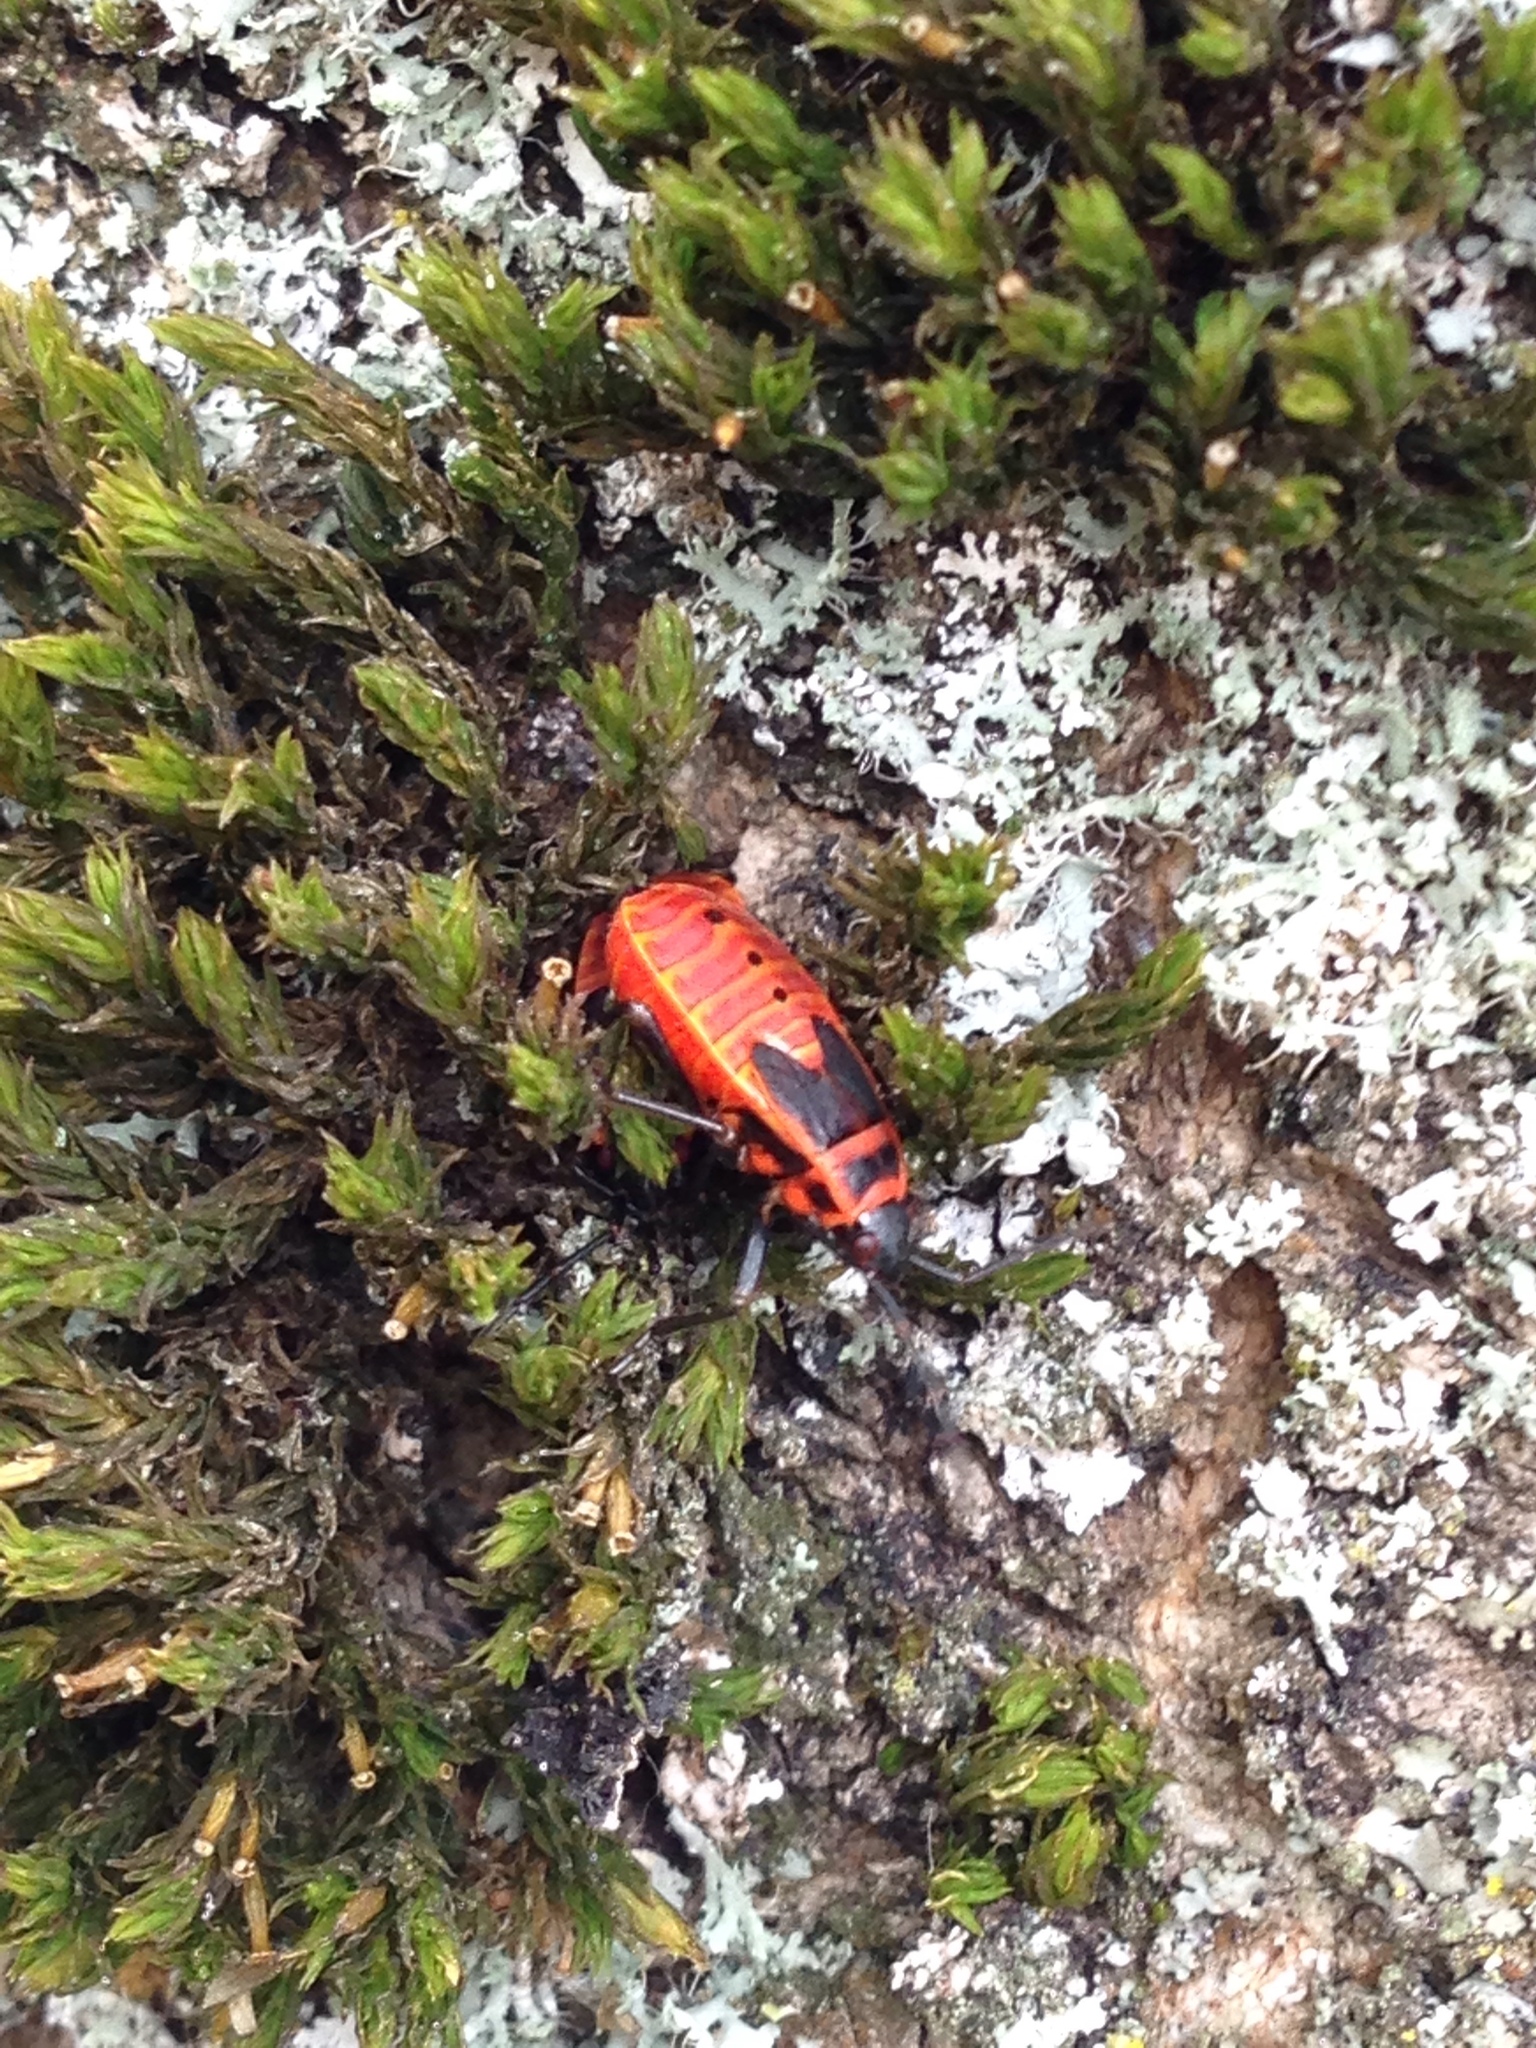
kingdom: Animalia
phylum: Arthropoda
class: Insecta
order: Hemiptera
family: Pyrrhocoridae
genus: Pyrrhocoris
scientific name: Pyrrhocoris apterus
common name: Firebug
